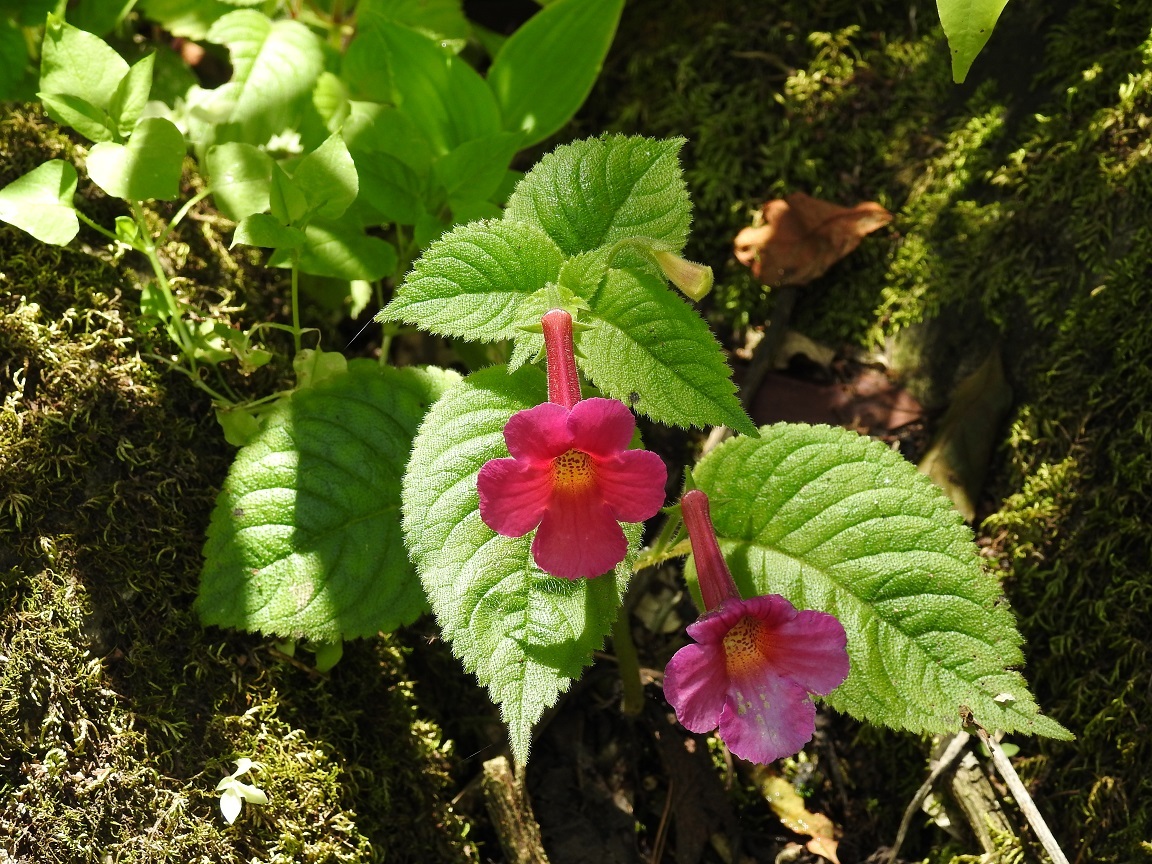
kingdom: Plantae
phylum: Tracheophyta
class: Magnoliopsida
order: Lamiales
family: Gesneriaceae
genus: Achimenes
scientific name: Achimenes skinneri
